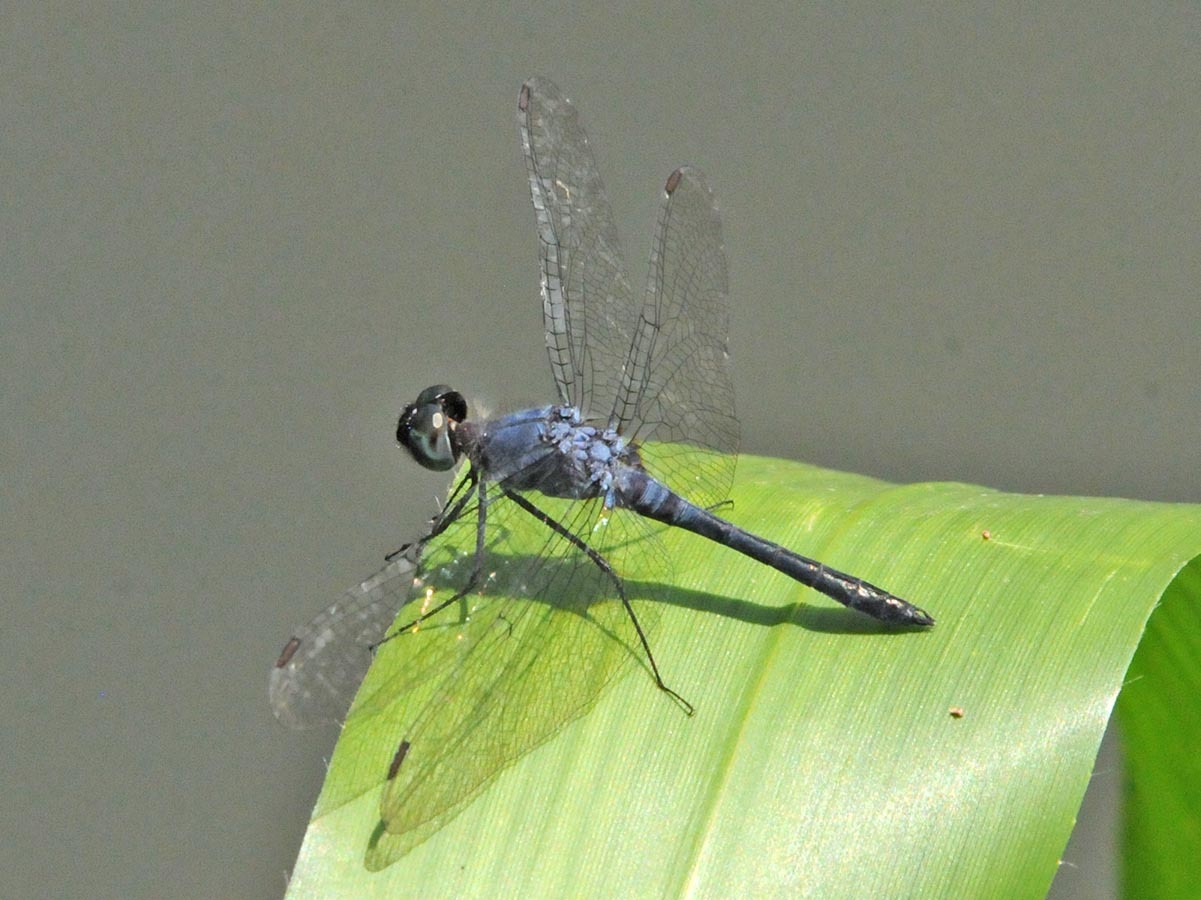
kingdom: Animalia
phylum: Arthropoda
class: Insecta
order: Odonata
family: Libellulidae
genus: Oligoclada
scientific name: Oligoclada heliophila
